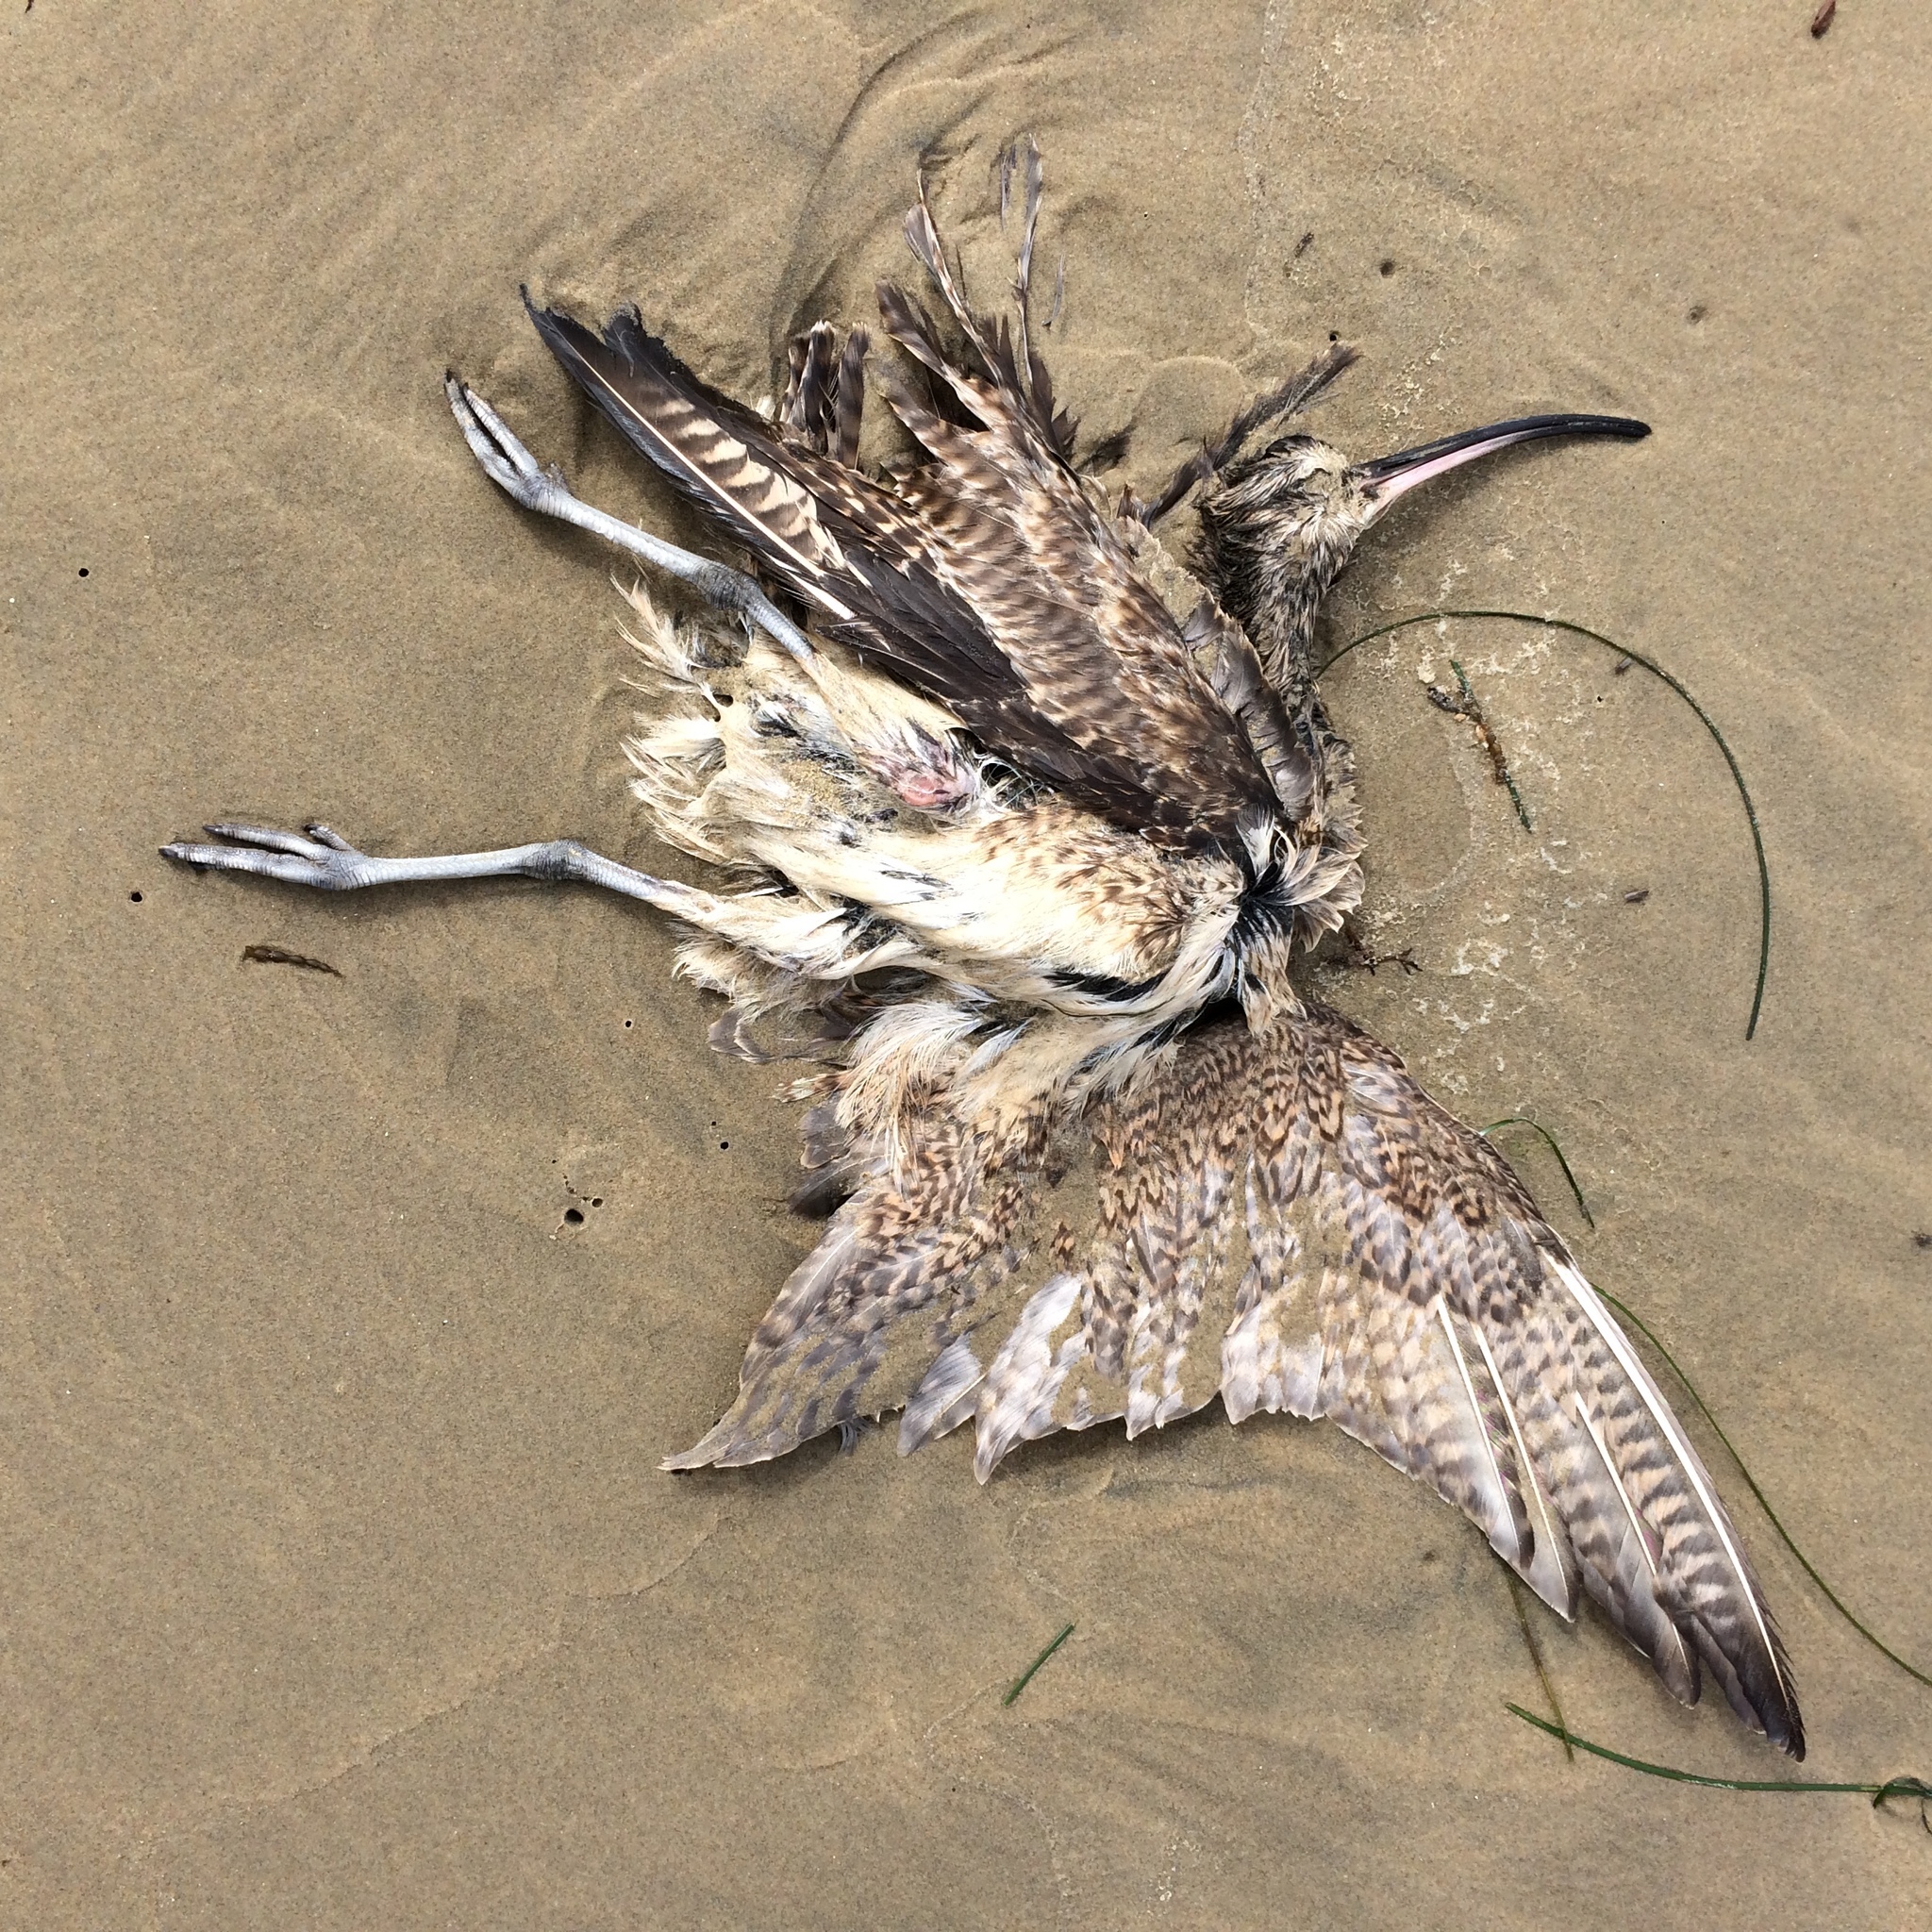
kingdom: Animalia
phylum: Chordata
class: Aves
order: Charadriiformes
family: Scolopacidae
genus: Numenius
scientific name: Numenius phaeopus
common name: Whimbrel
